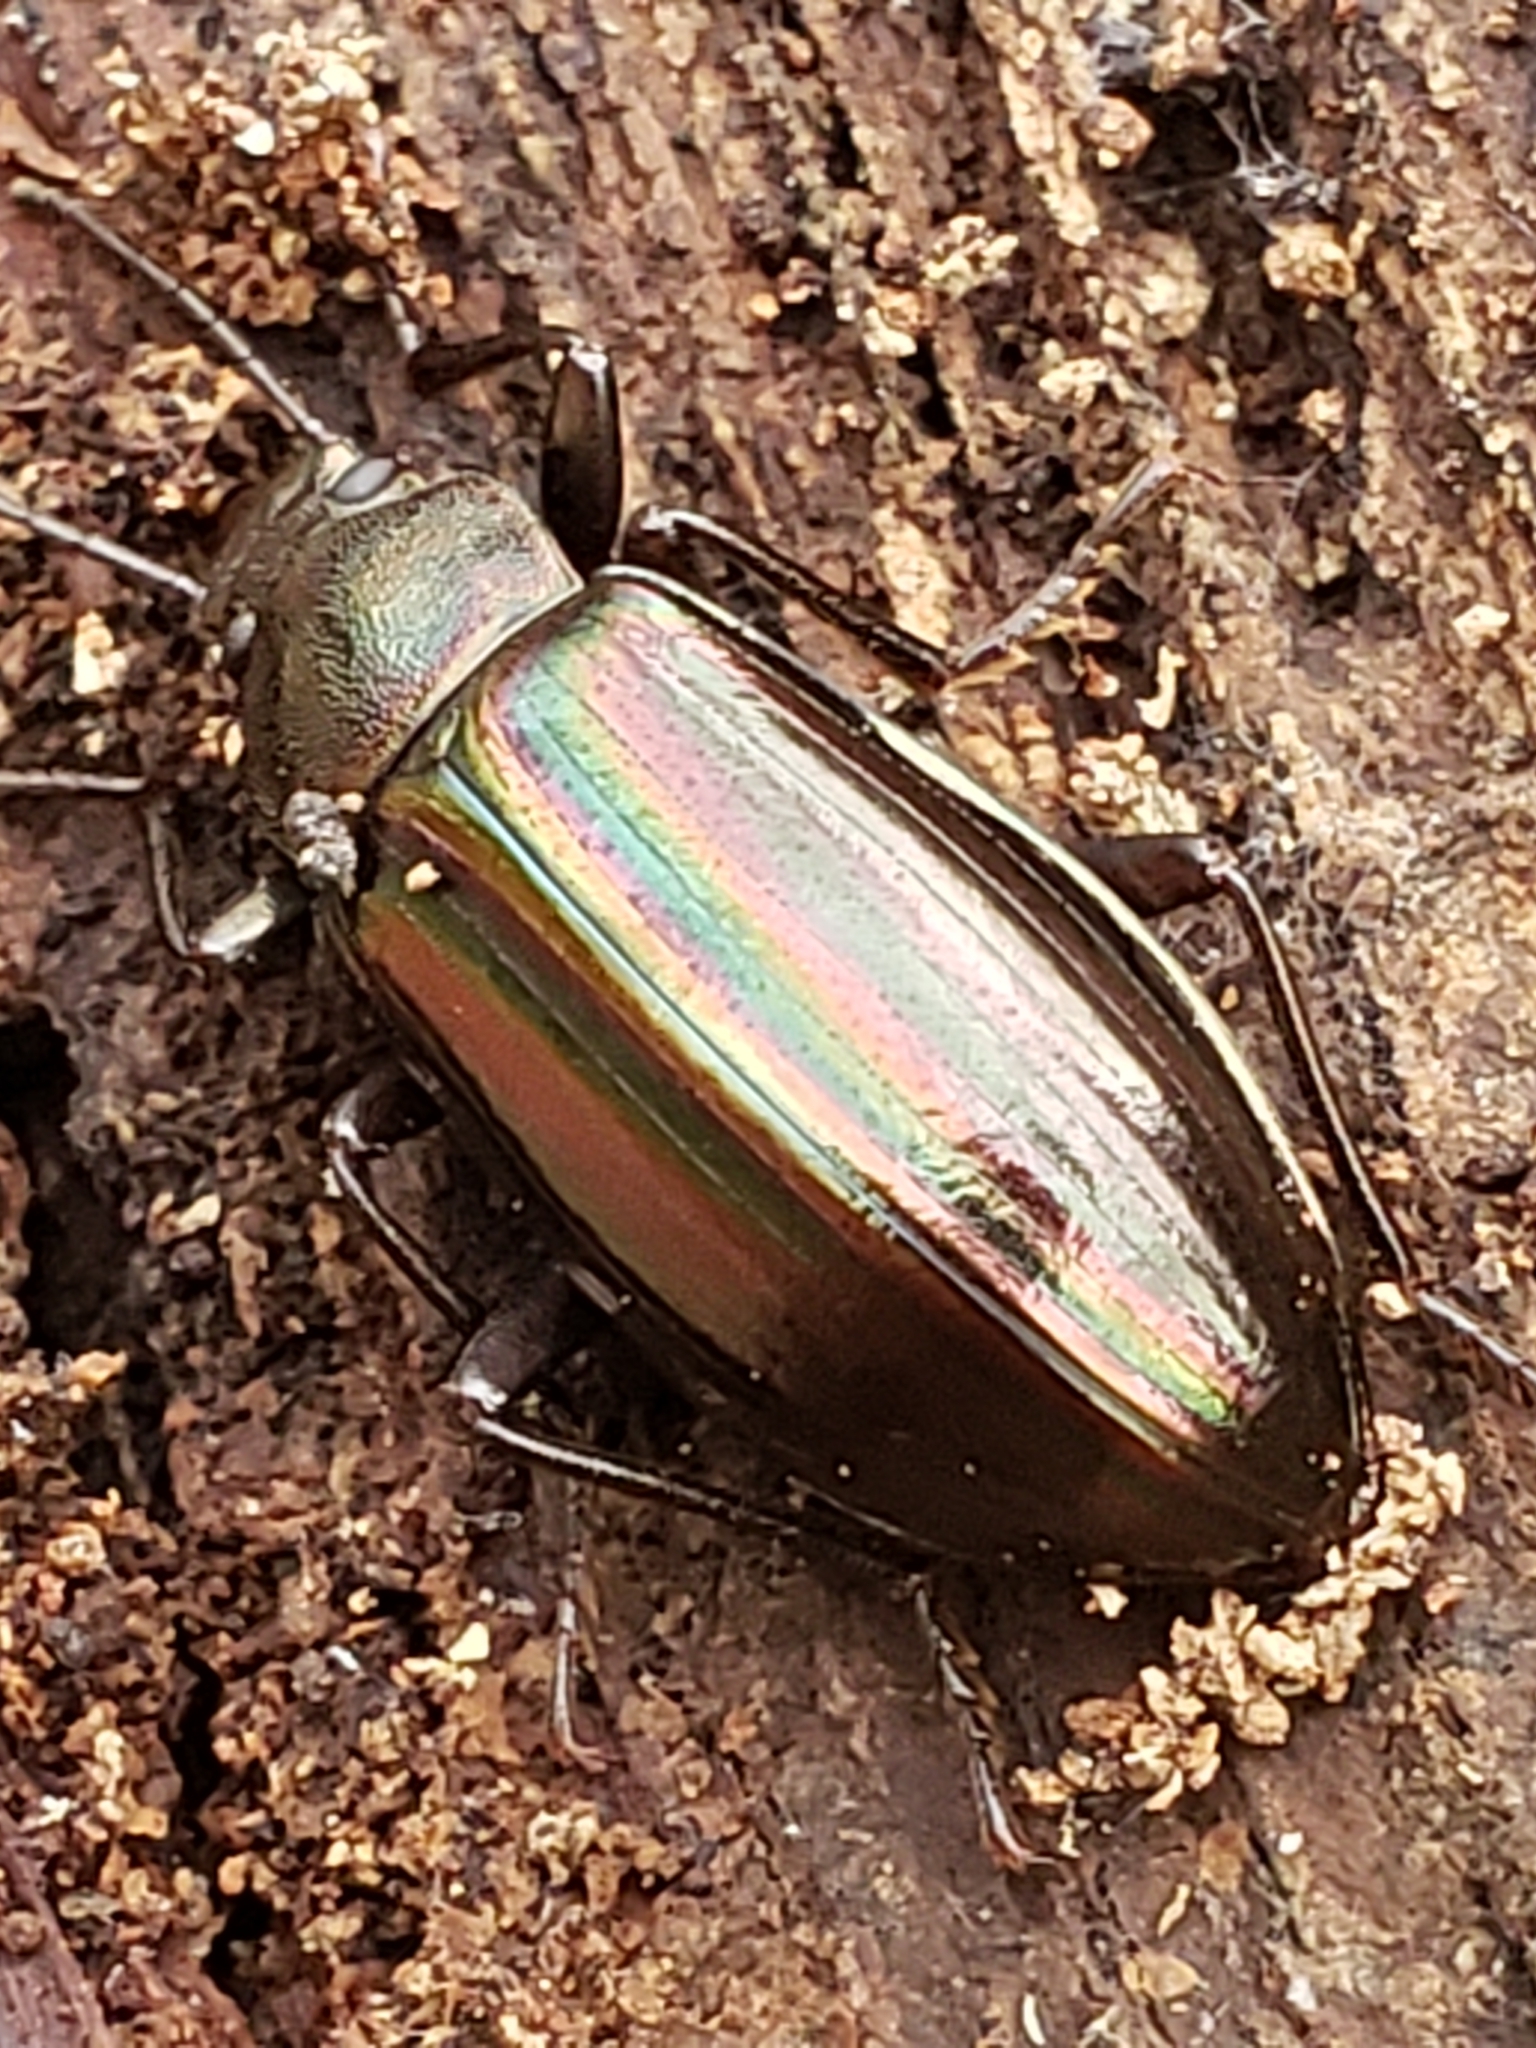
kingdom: Animalia
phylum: Arthropoda
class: Insecta
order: Coleoptera
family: Tenebrionidae
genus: Tarpela
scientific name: Tarpela micans
